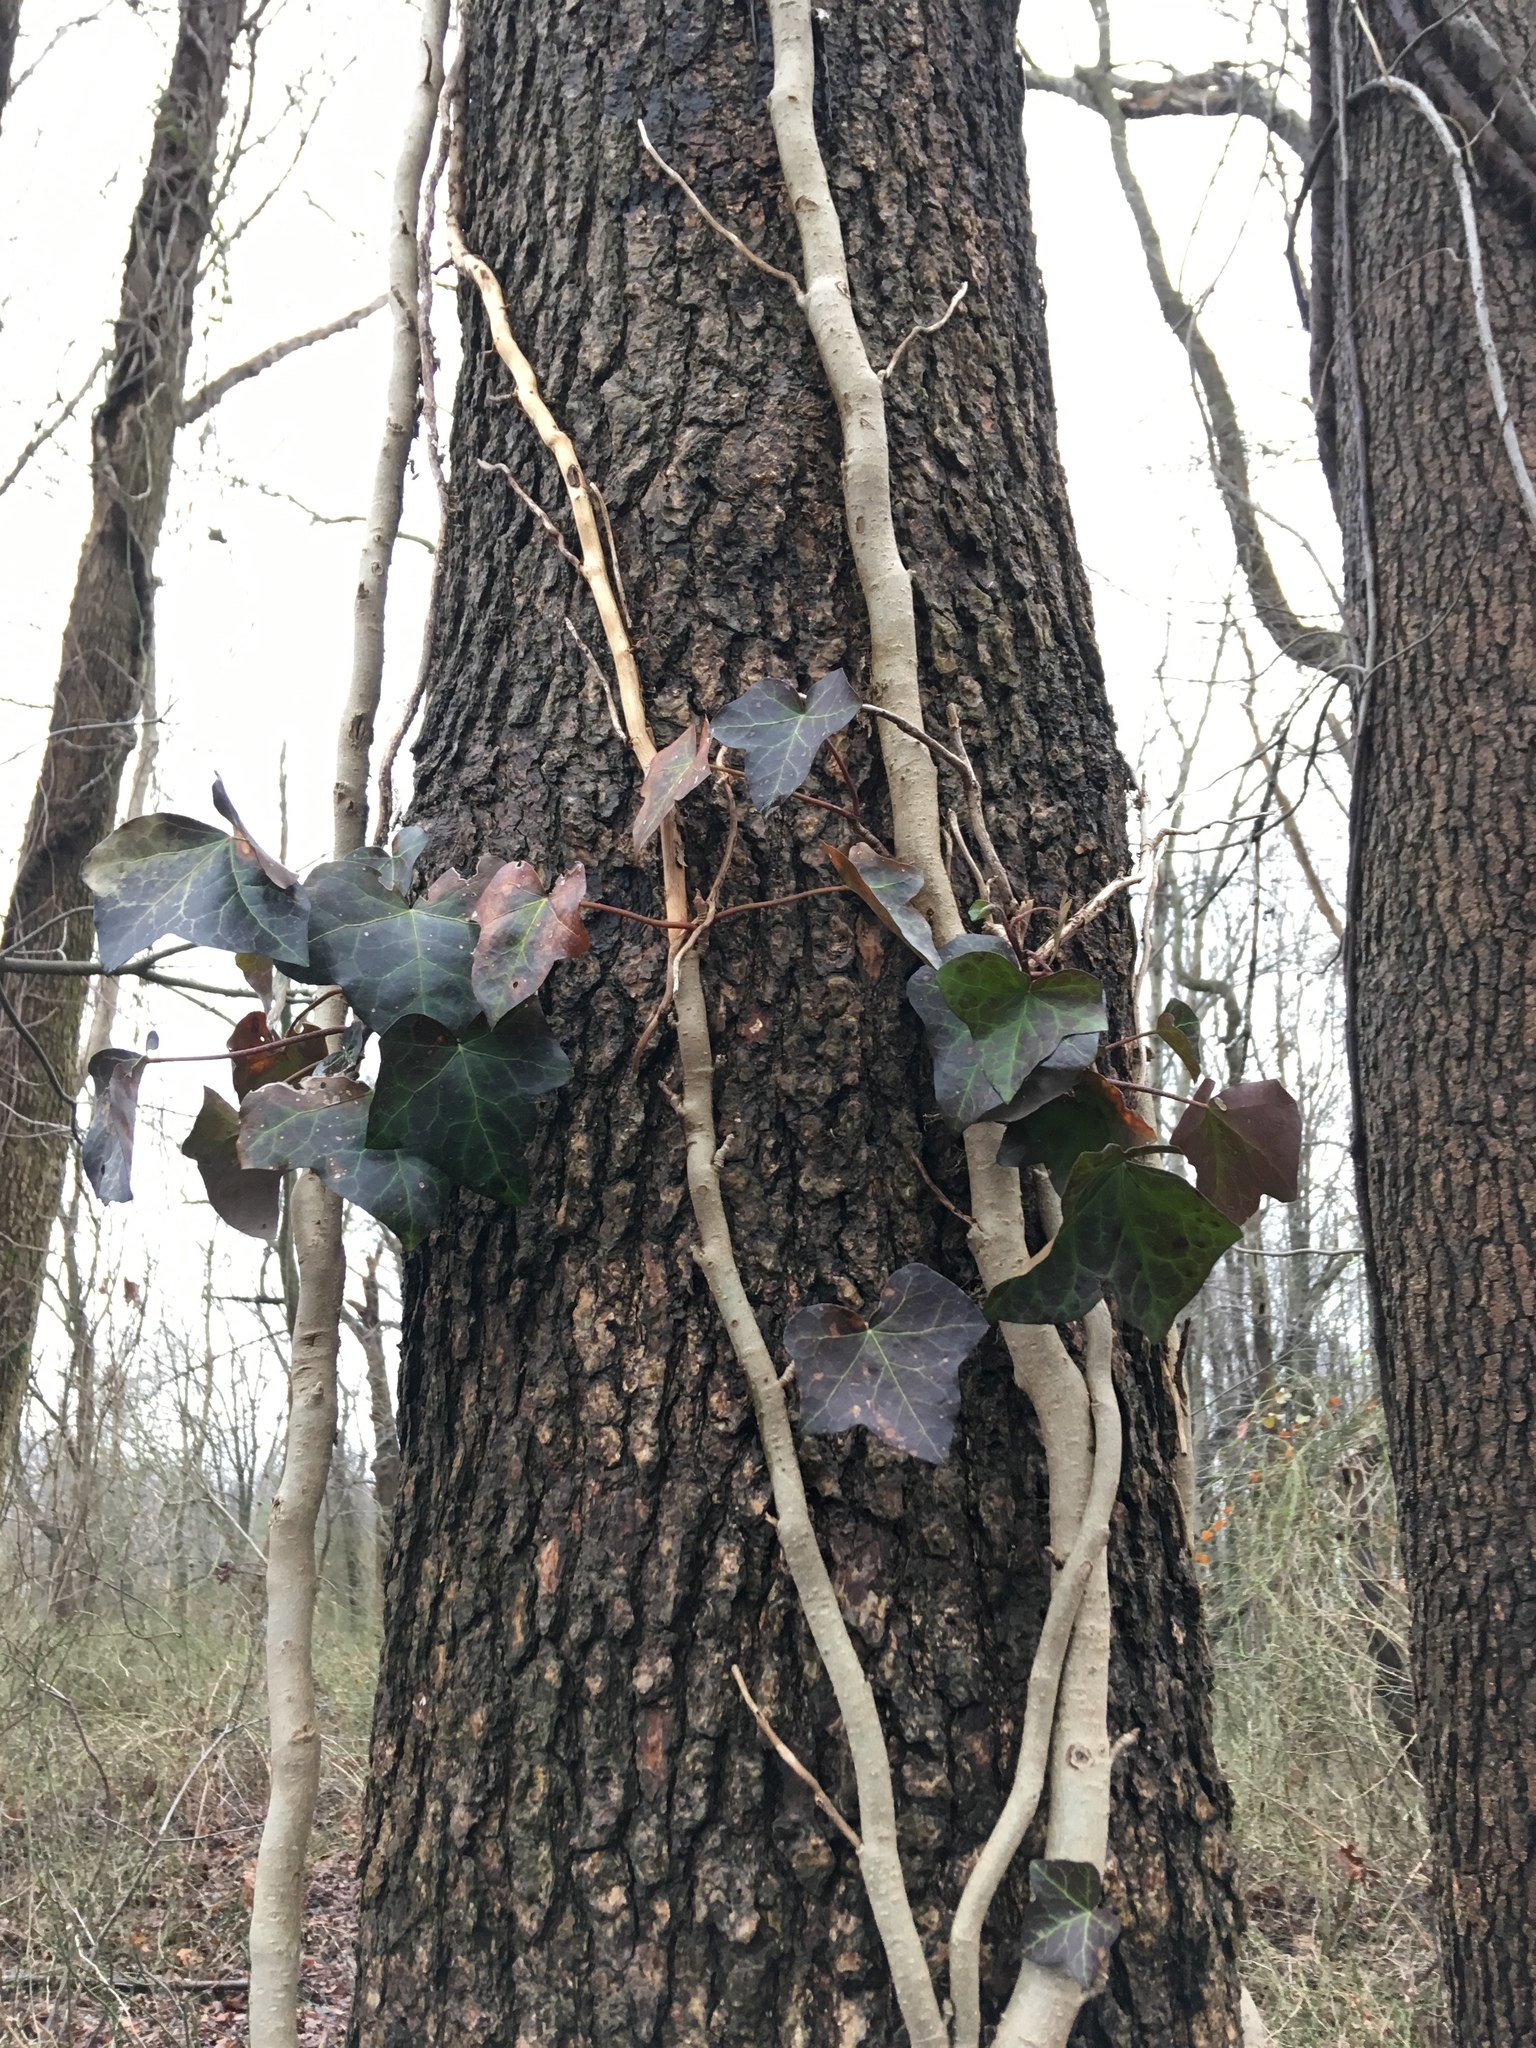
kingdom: Plantae
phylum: Tracheophyta
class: Magnoliopsida
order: Apiales
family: Araliaceae
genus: Hedera
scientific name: Hedera helix
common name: Ivy
